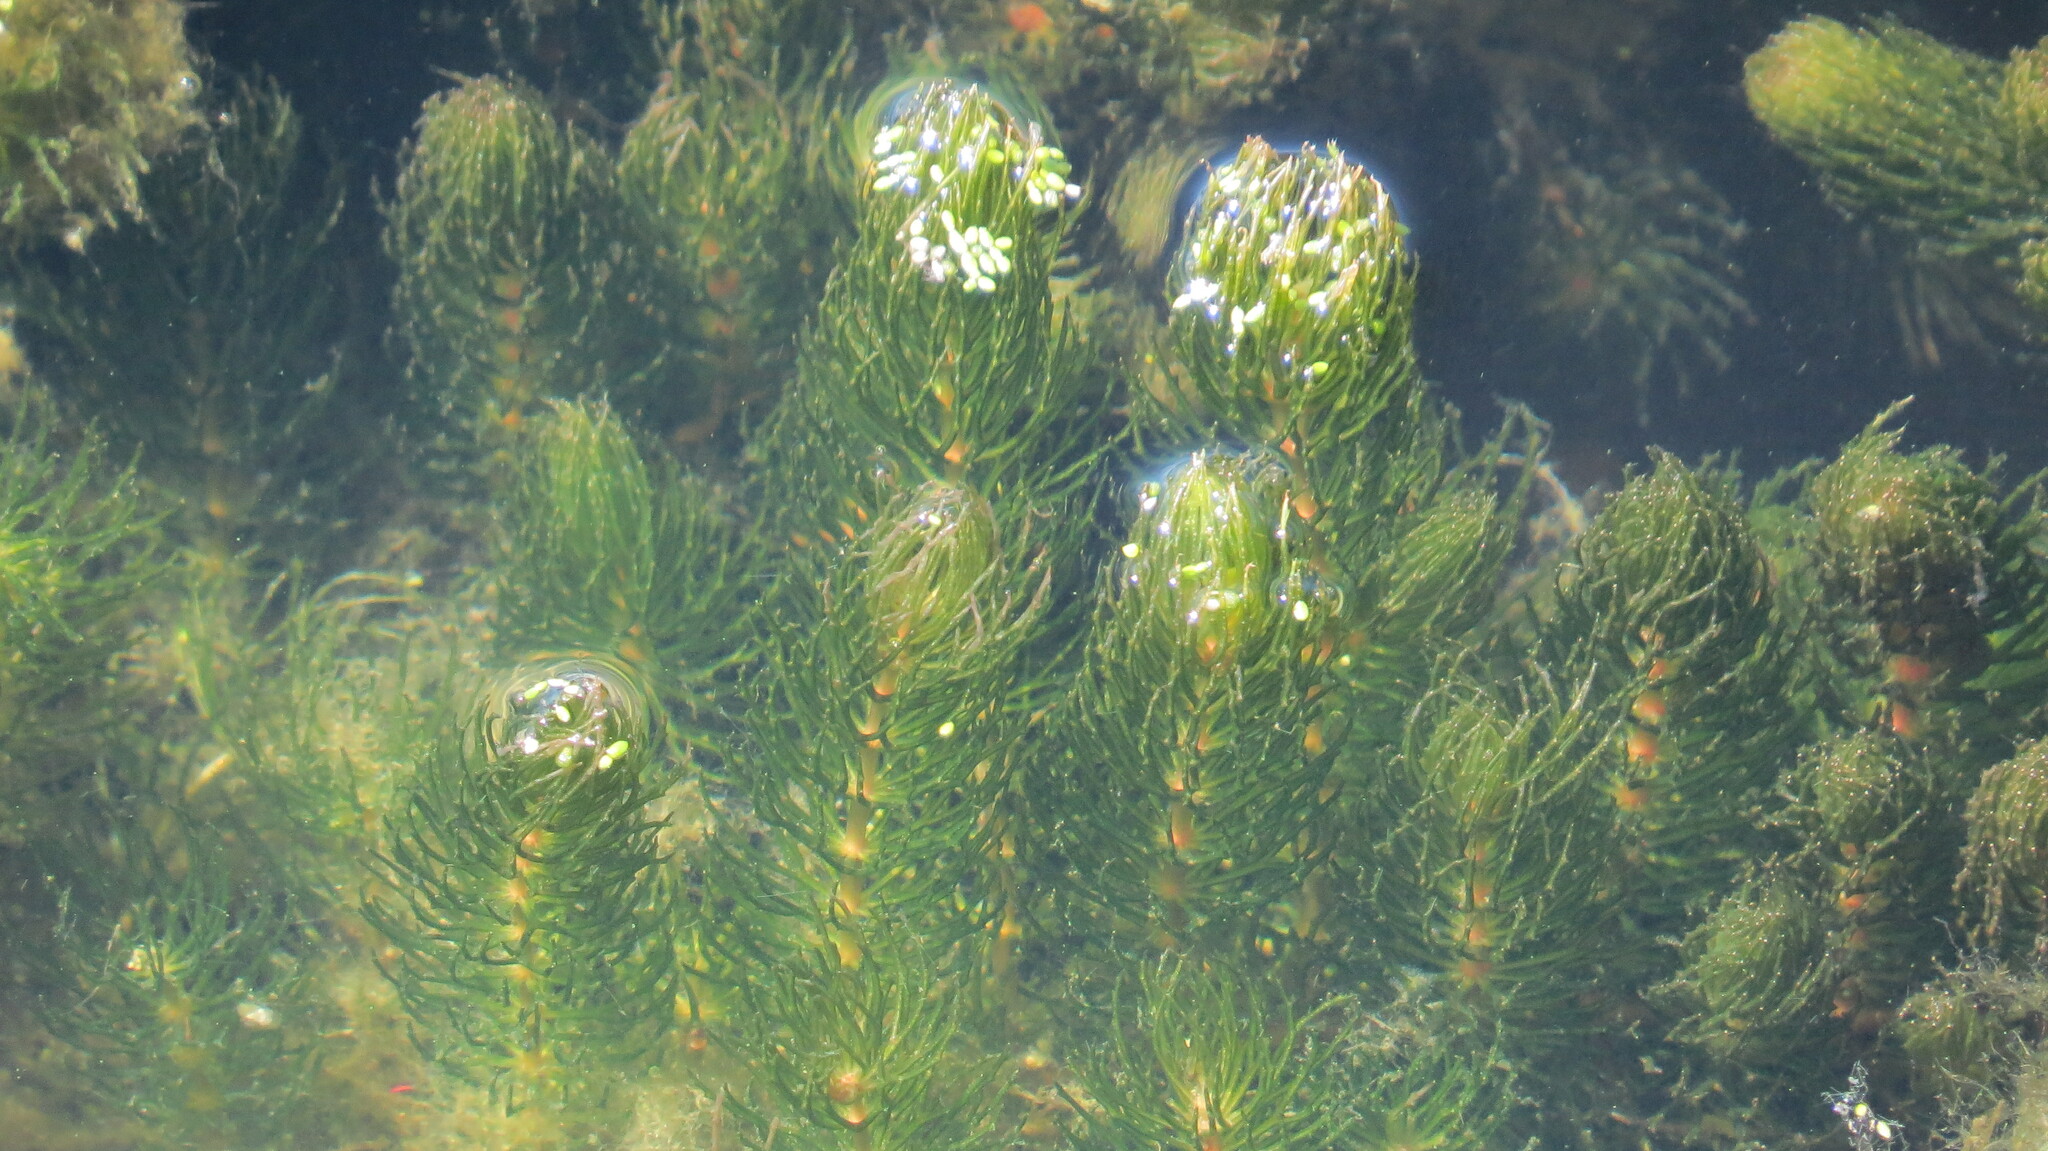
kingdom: Plantae
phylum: Tracheophyta
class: Magnoliopsida
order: Ceratophyllales
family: Ceratophyllaceae
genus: Ceratophyllum
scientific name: Ceratophyllum demersum
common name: Rigid hornwort
